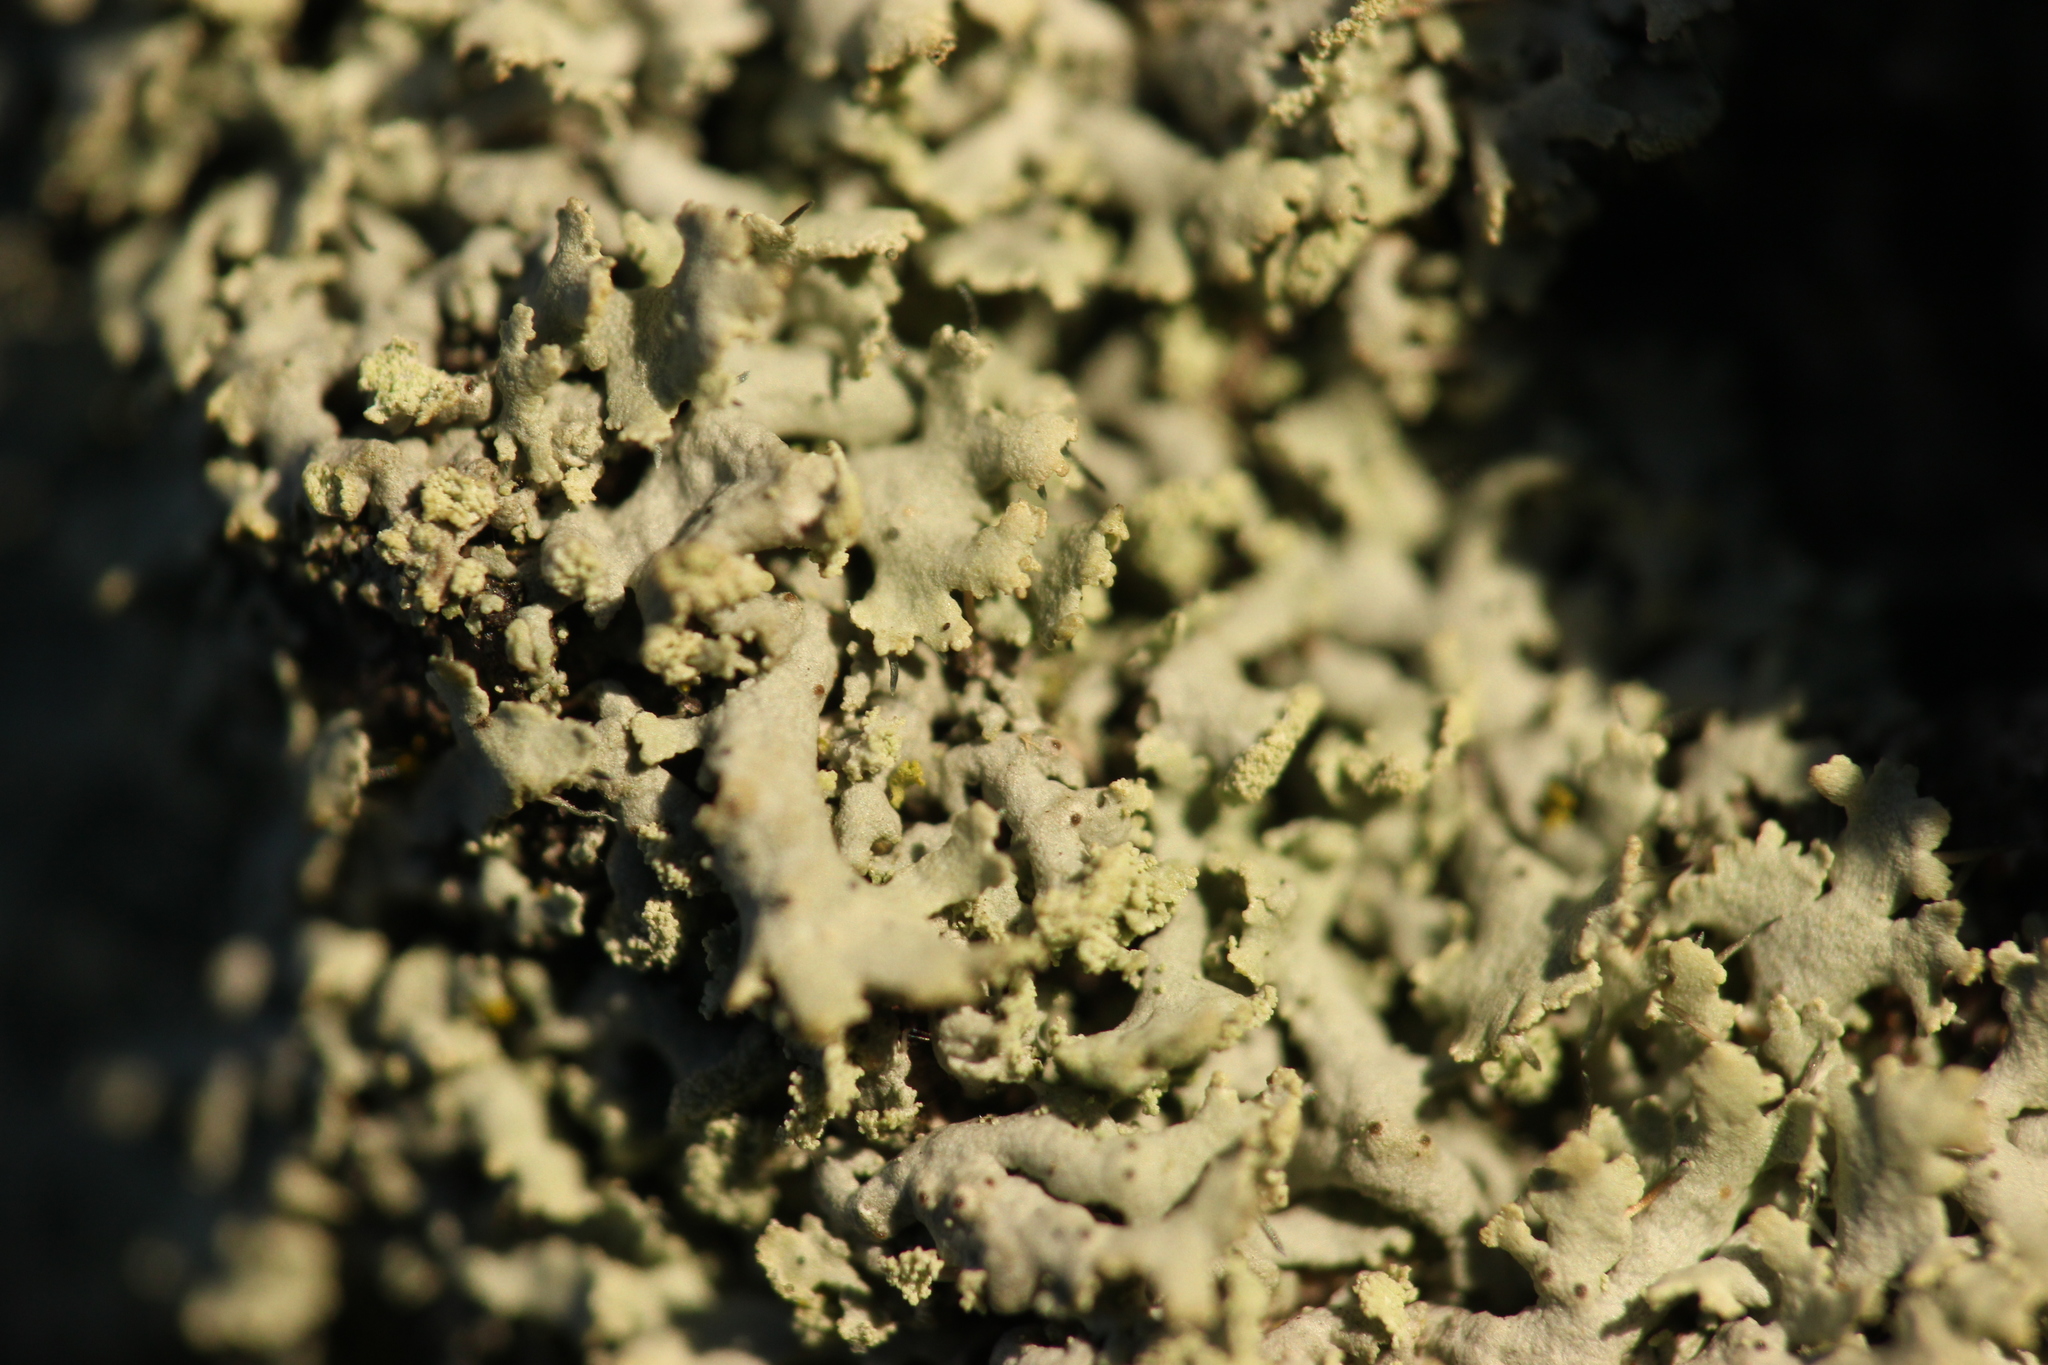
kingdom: Fungi
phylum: Ascomycota
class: Lecanoromycetes
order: Caliciales
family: Physciaceae
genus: Physcia
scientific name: Physcia tenella
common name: Fringed rosette lichen
